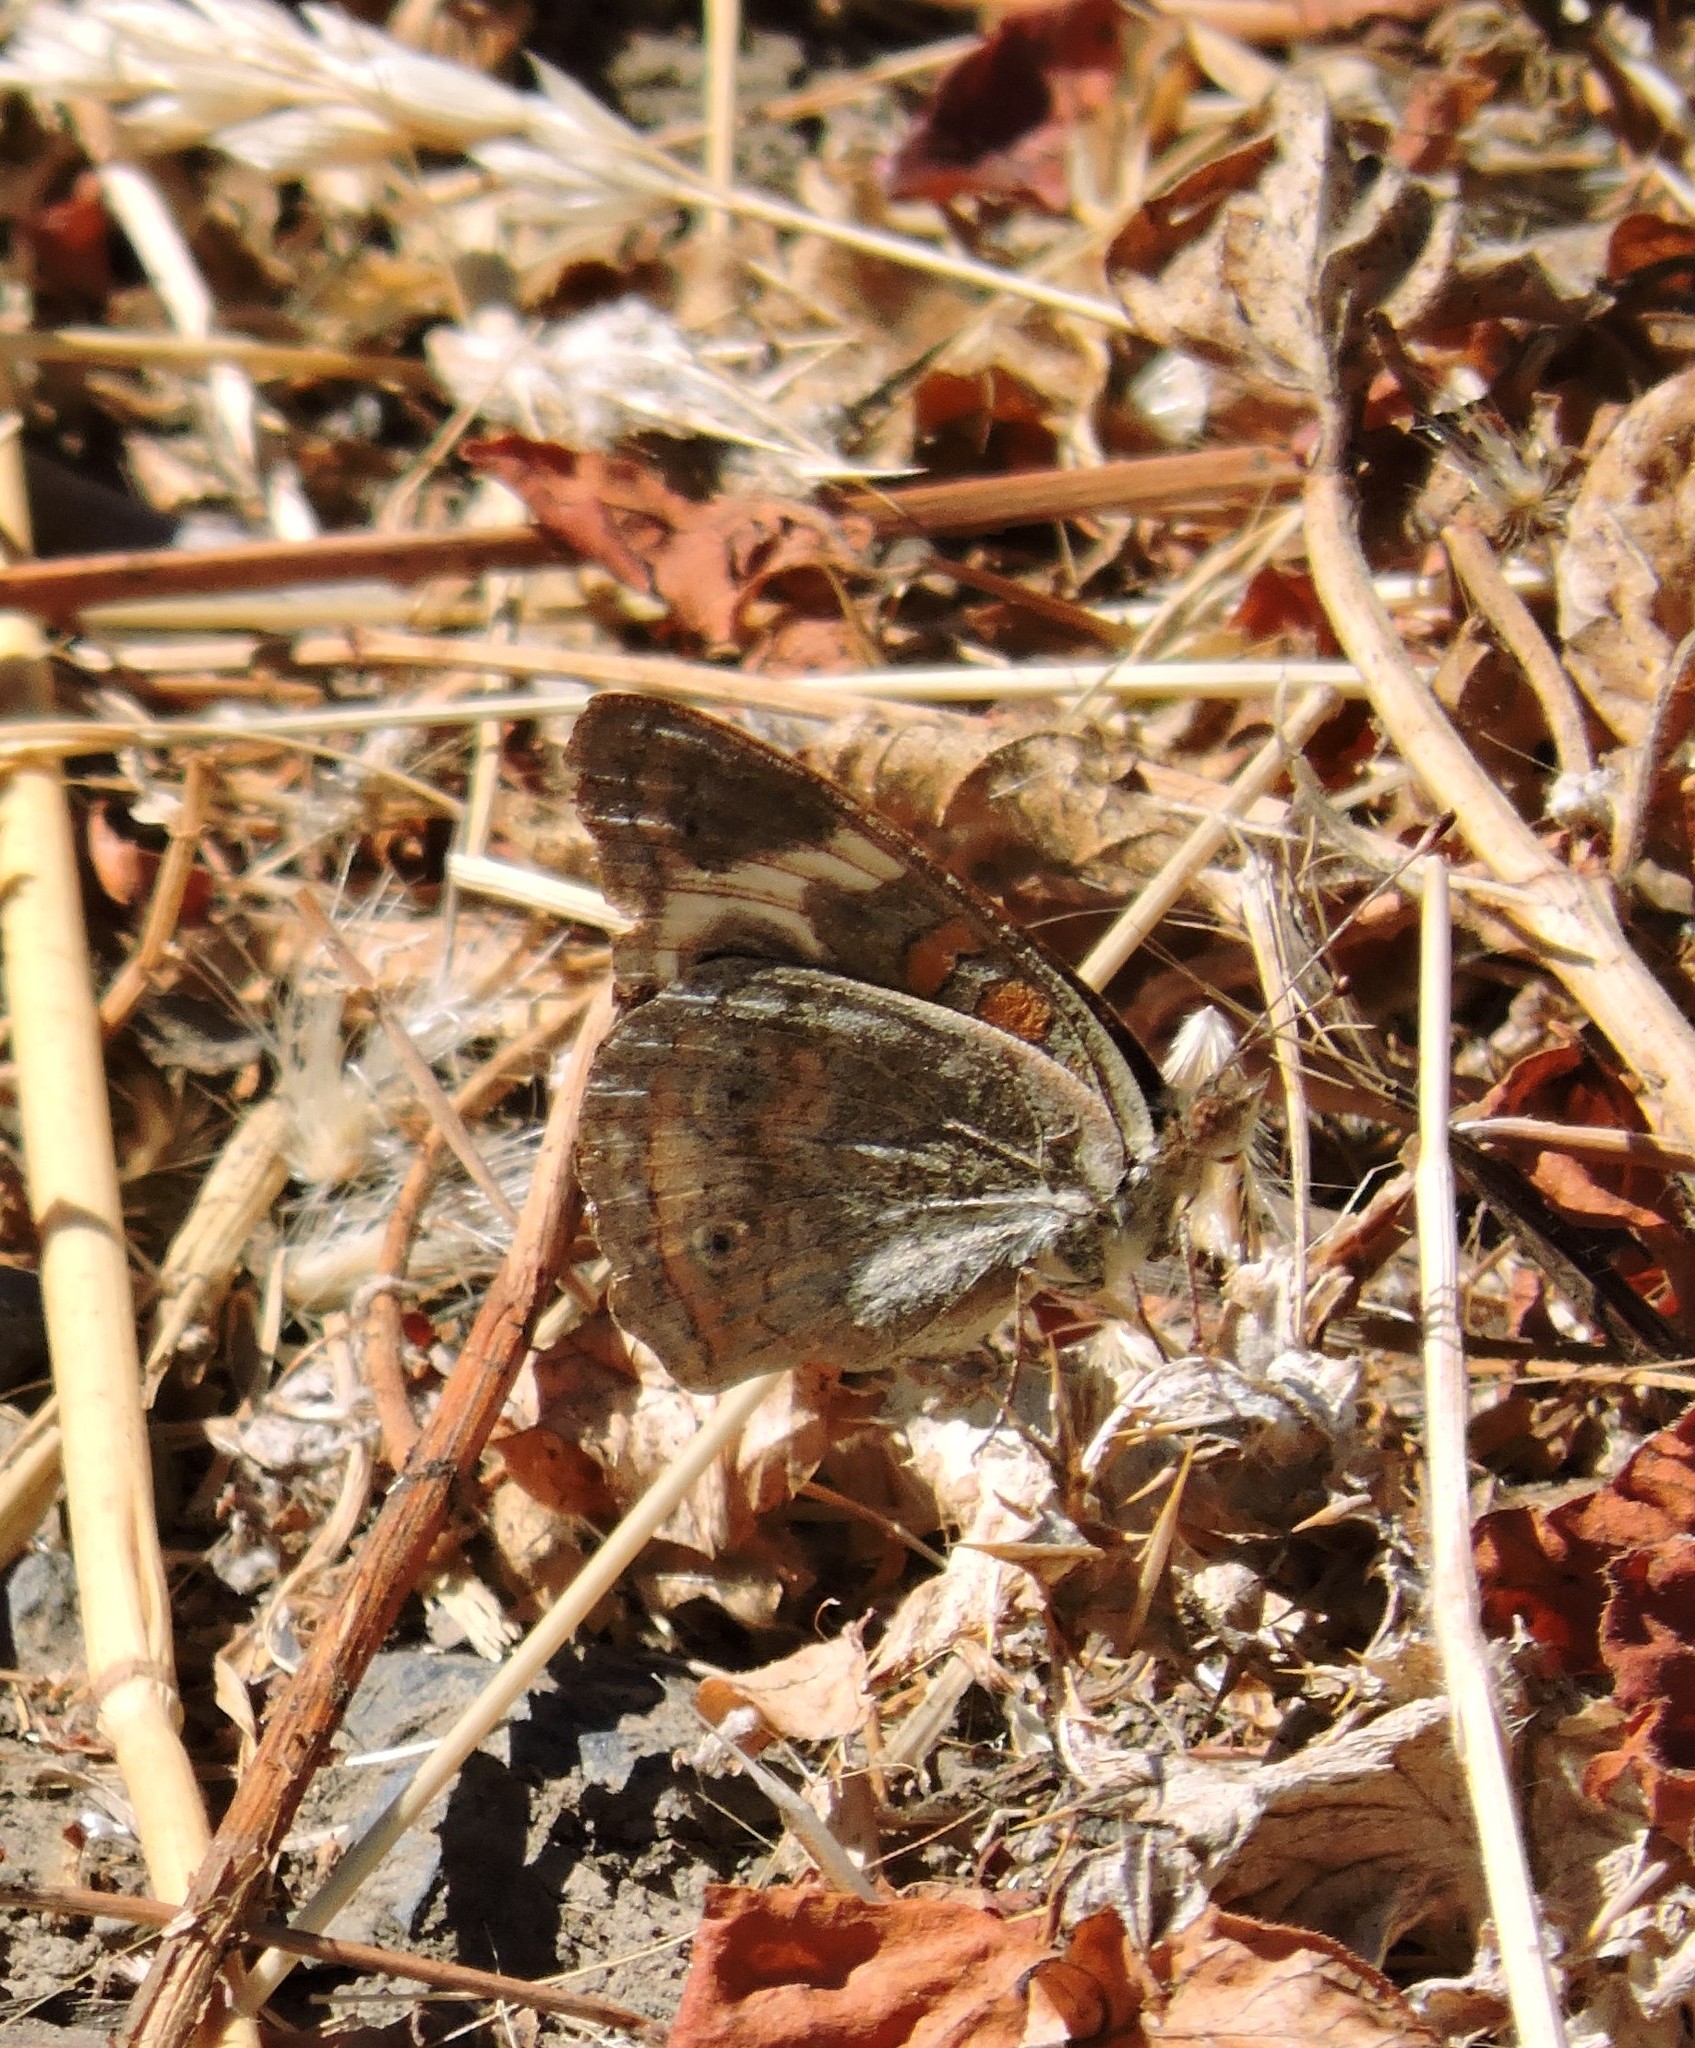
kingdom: Animalia
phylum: Arthropoda
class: Insecta
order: Lepidoptera
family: Nymphalidae
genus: Junonia
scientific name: Junonia grisea
